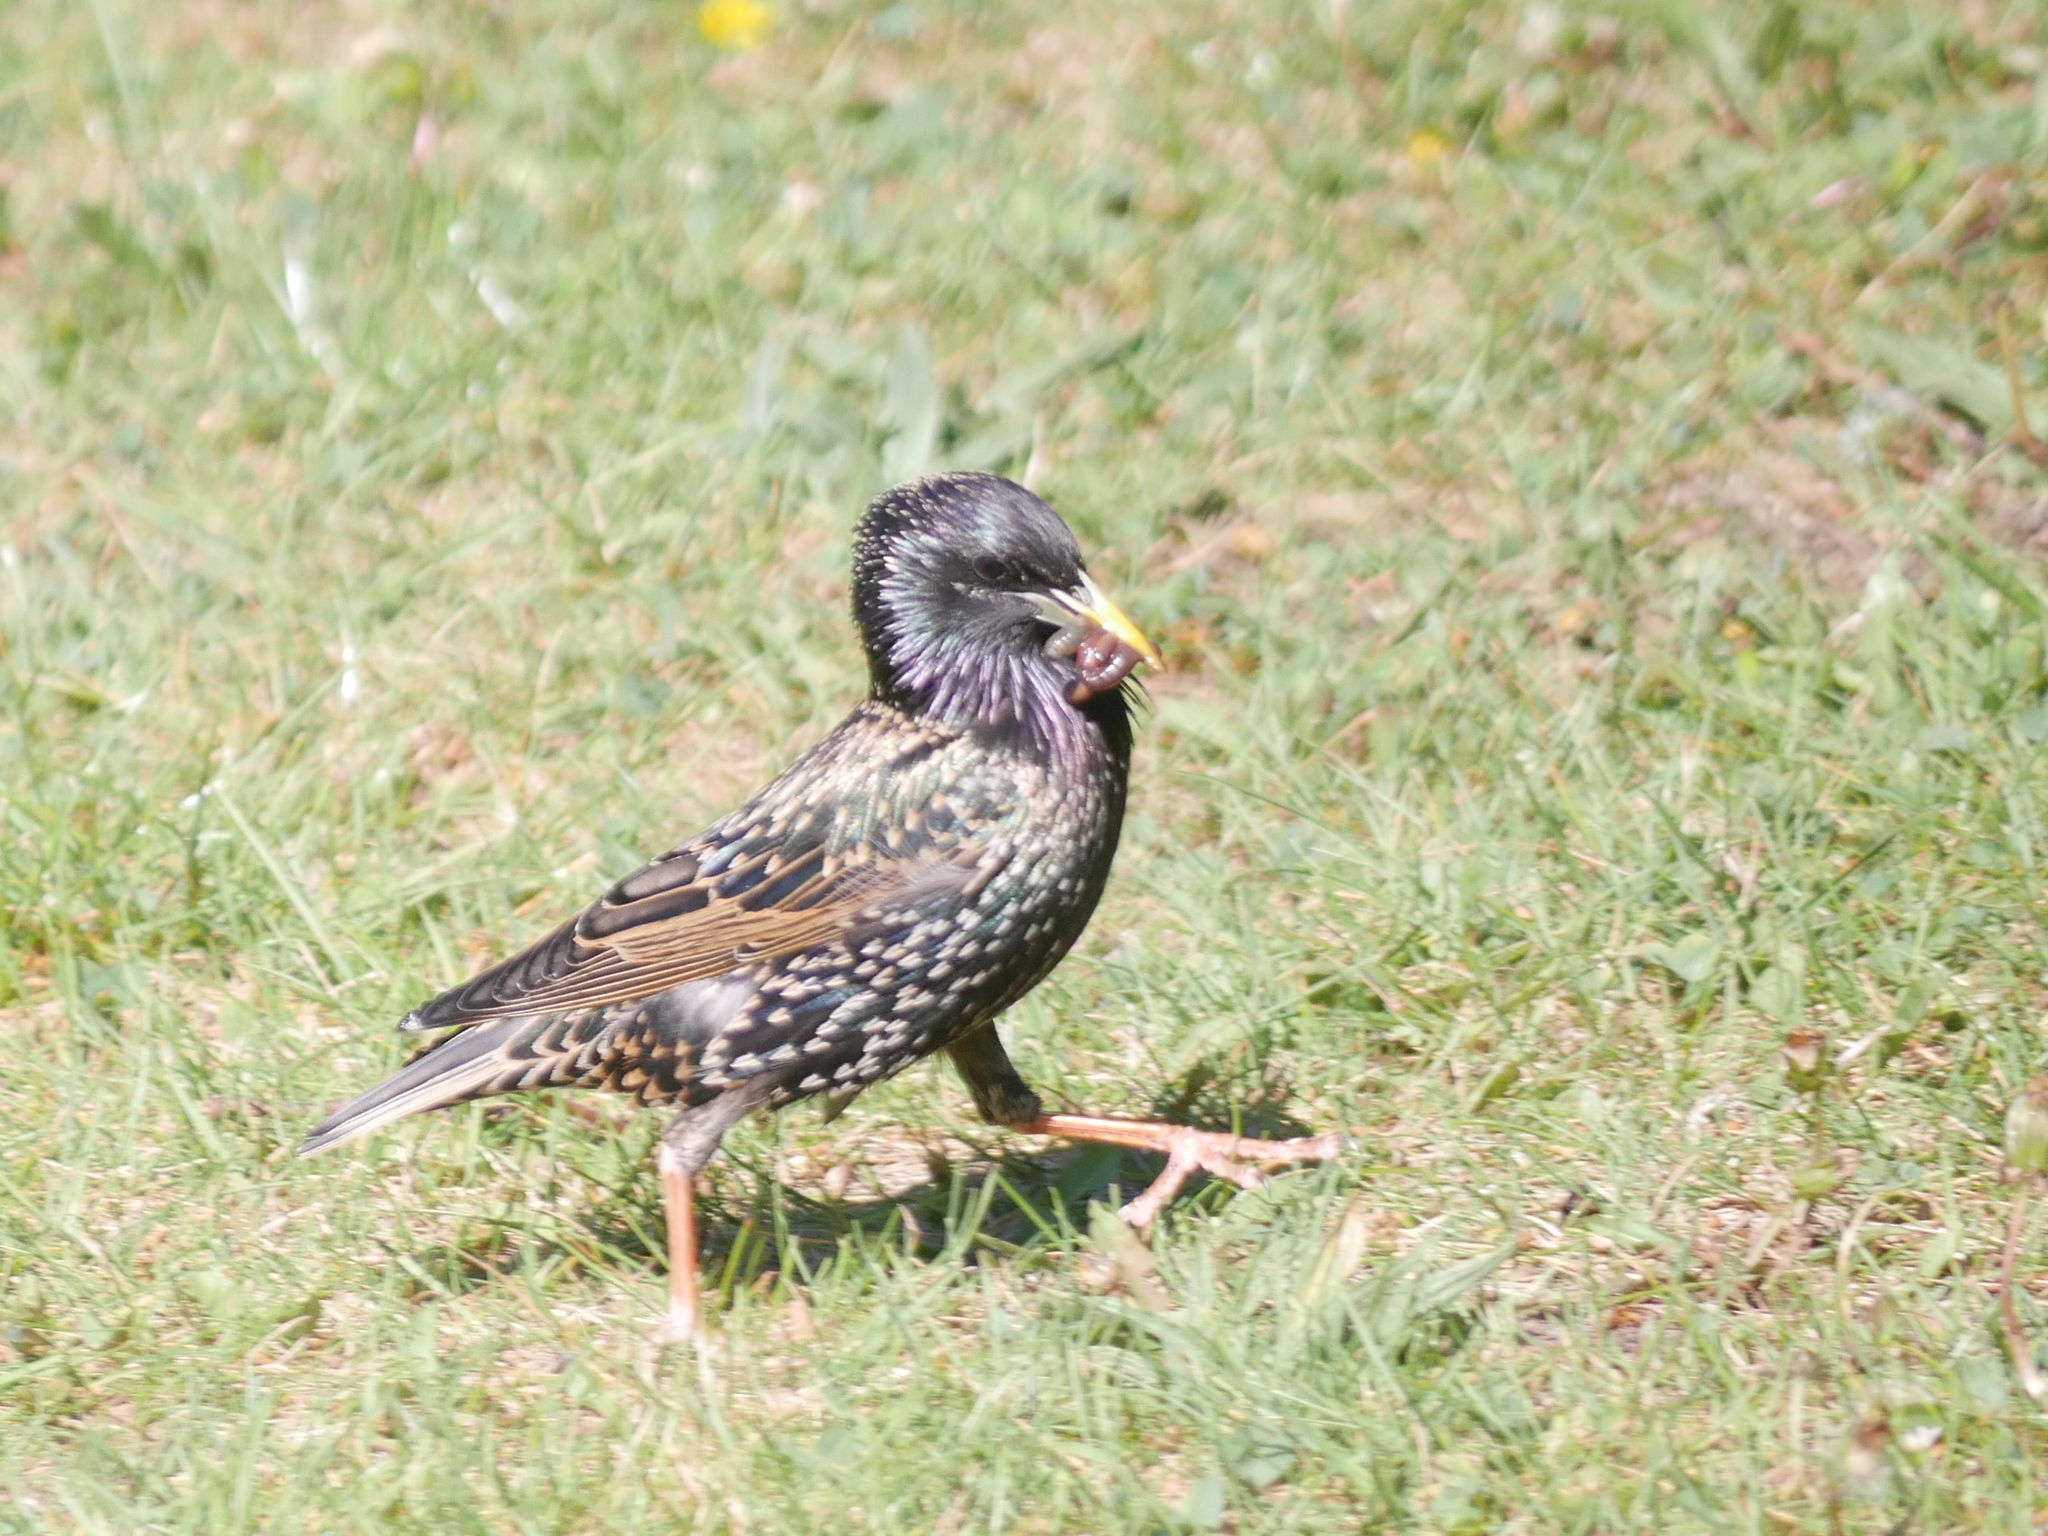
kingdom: Animalia
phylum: Chordata
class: Aves
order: Passeriformes
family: Sturnidae
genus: Sturnus
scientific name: Sturnus vulgaris
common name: Common starling
